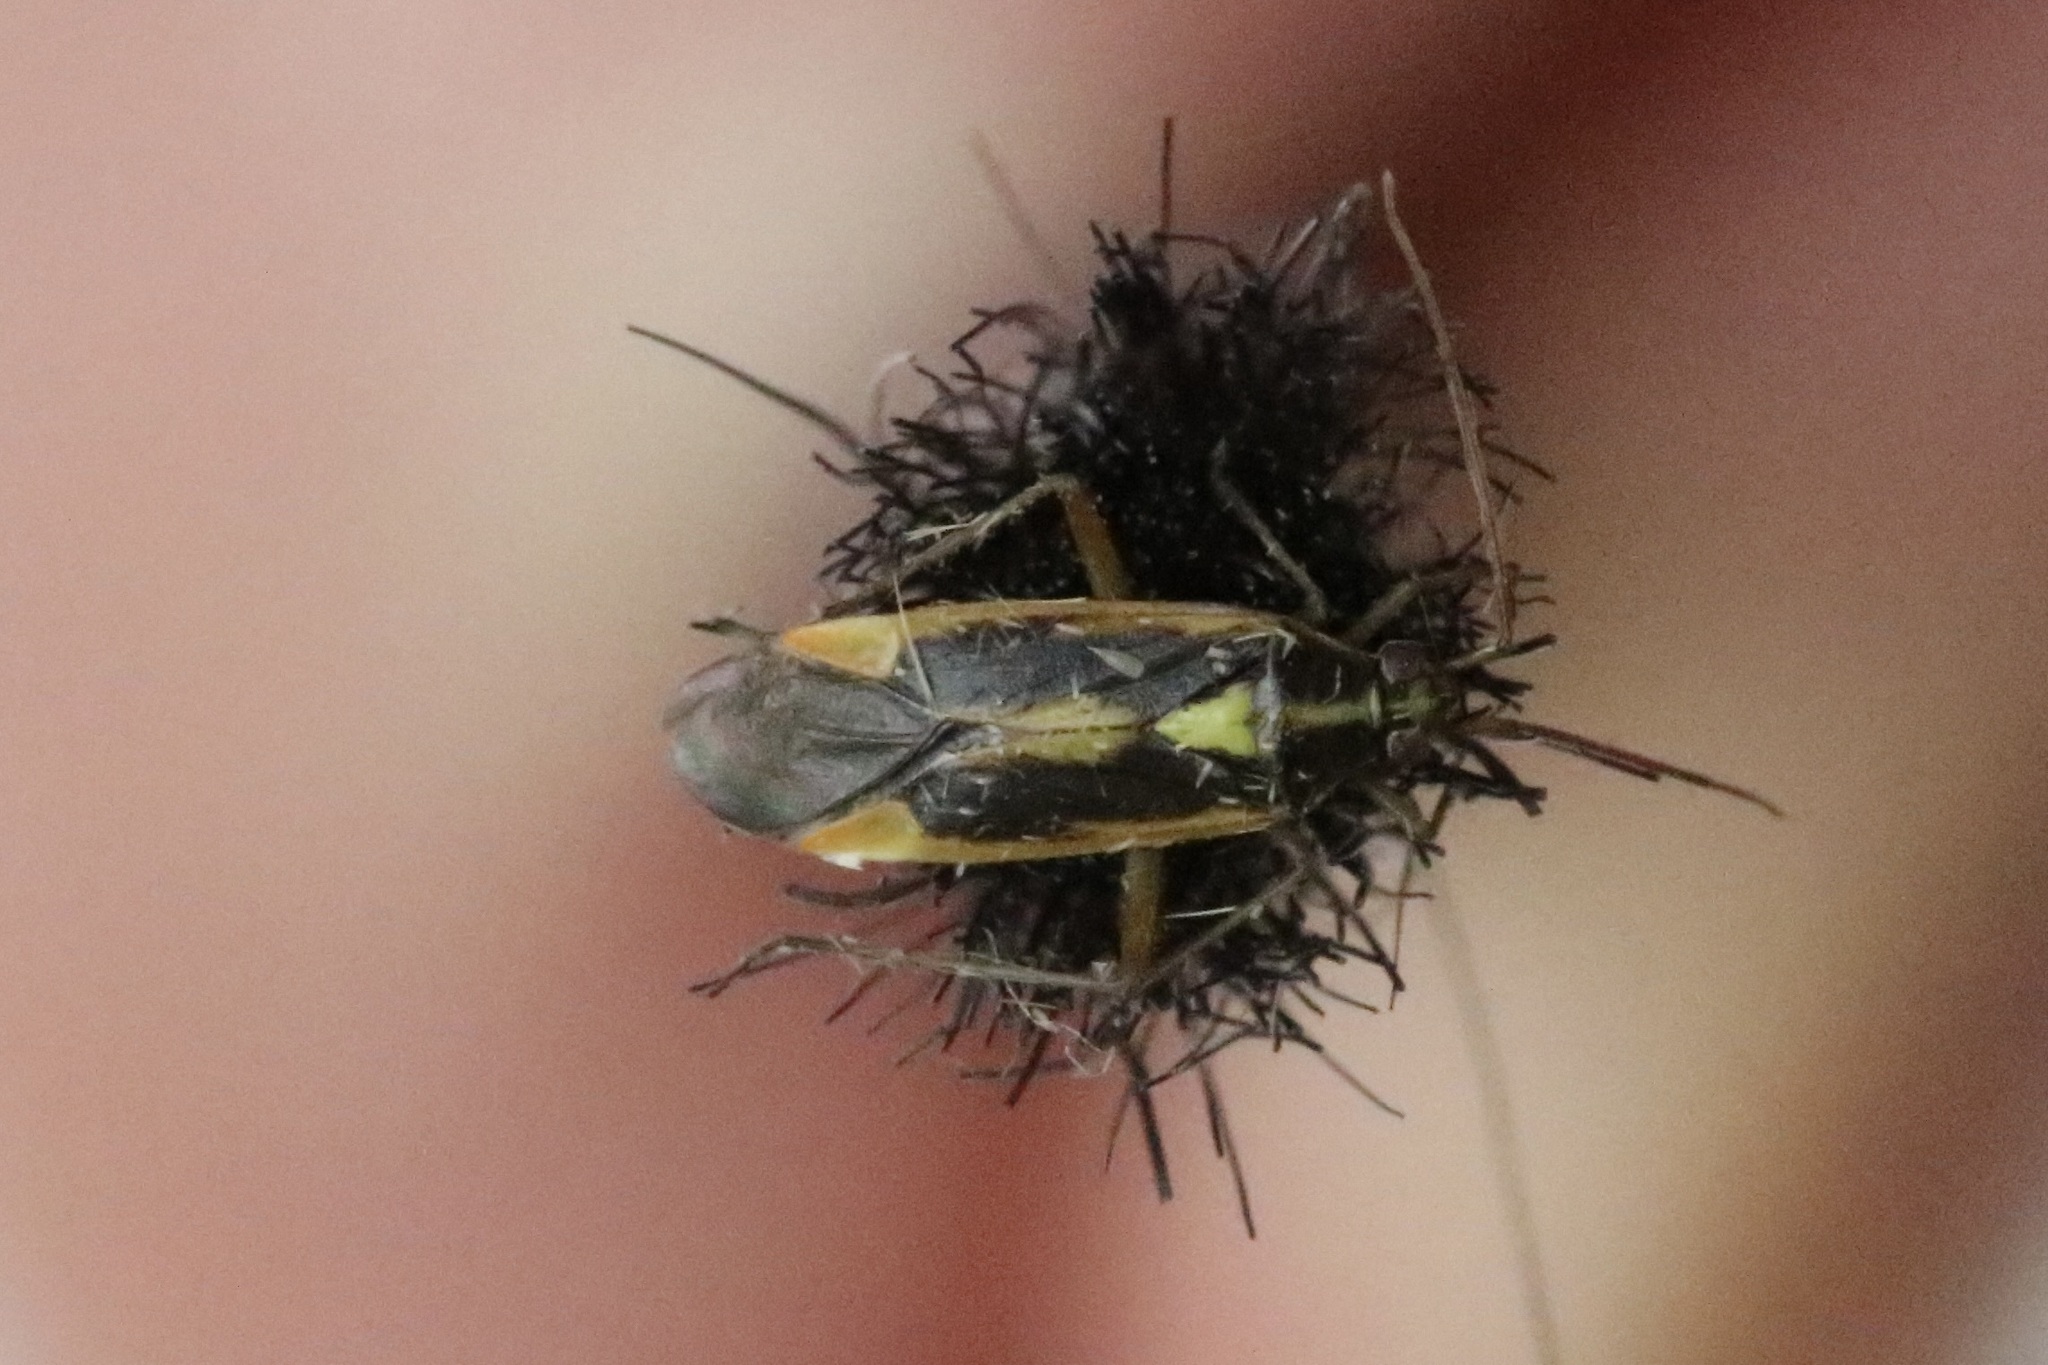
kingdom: Animalia
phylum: Arthropoda
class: Insecta
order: Hemiptera
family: Miridae
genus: Stenotus
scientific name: Stenotus binotatus
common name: Plant bug
